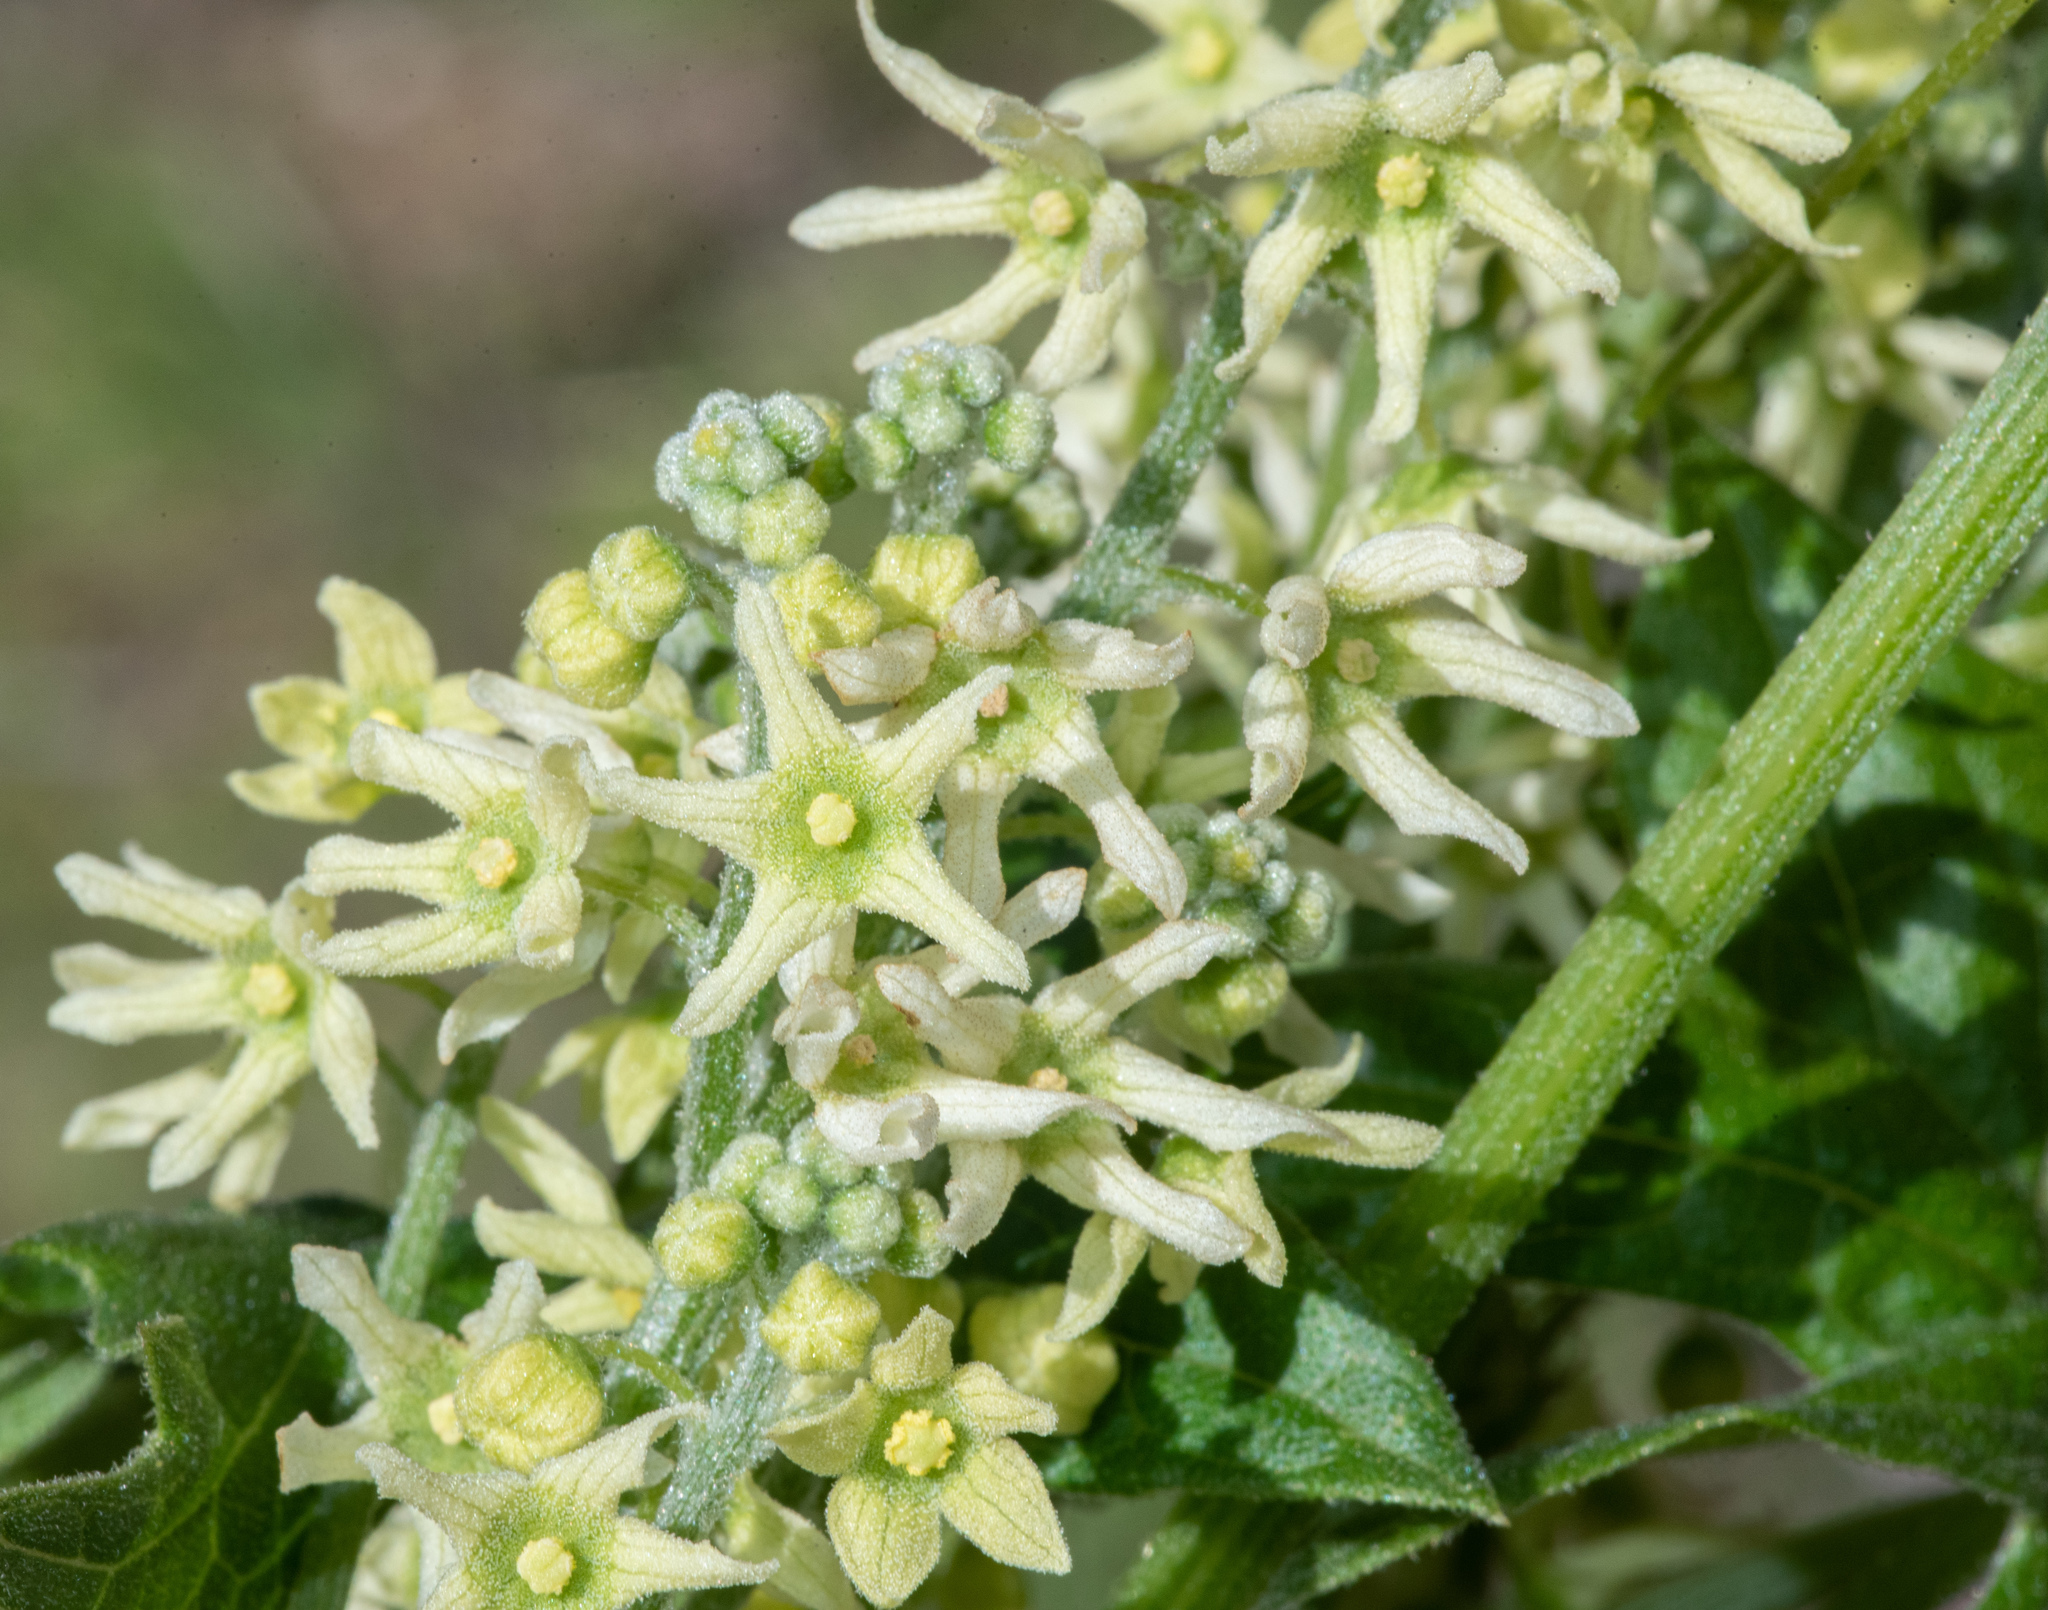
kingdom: Plantae
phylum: Tracheophyta
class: Magnoliopsida
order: Cucurbitales
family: Cucurbitaceae
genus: Marah
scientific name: Marah fabacea
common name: California manroot
